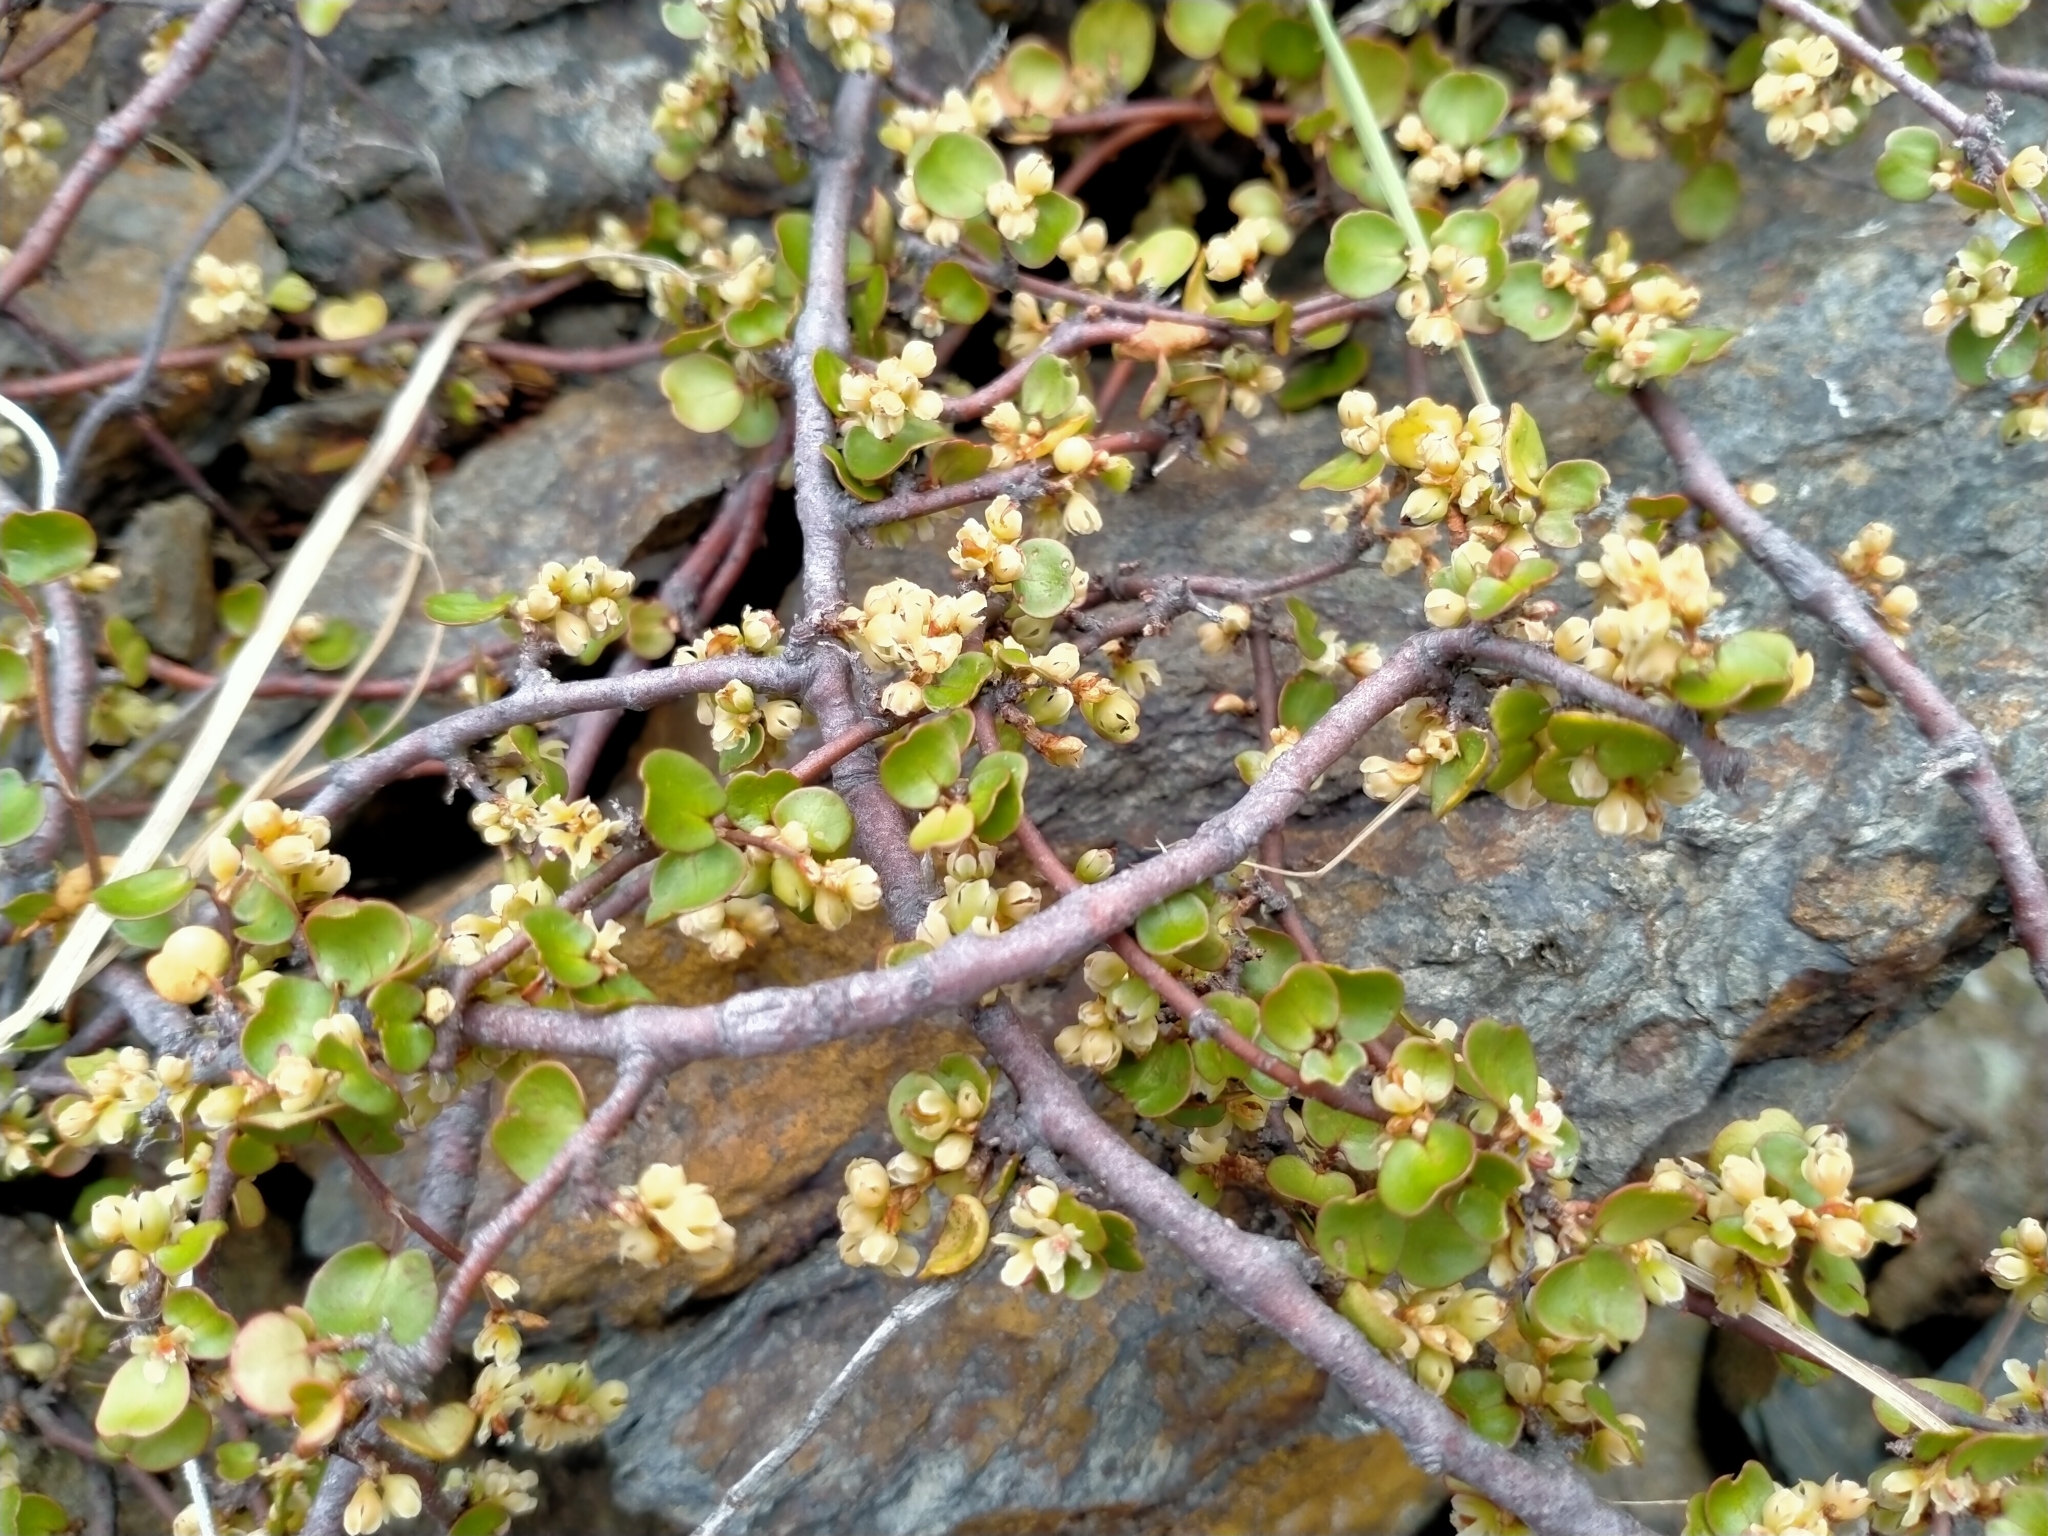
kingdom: Plantae
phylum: Tracheophyta
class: Magnoliopsida
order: Caryophyllales
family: Polygonaceae
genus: Muehlenbeckia
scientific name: Muehlenbeckia complexa
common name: Wireplant
